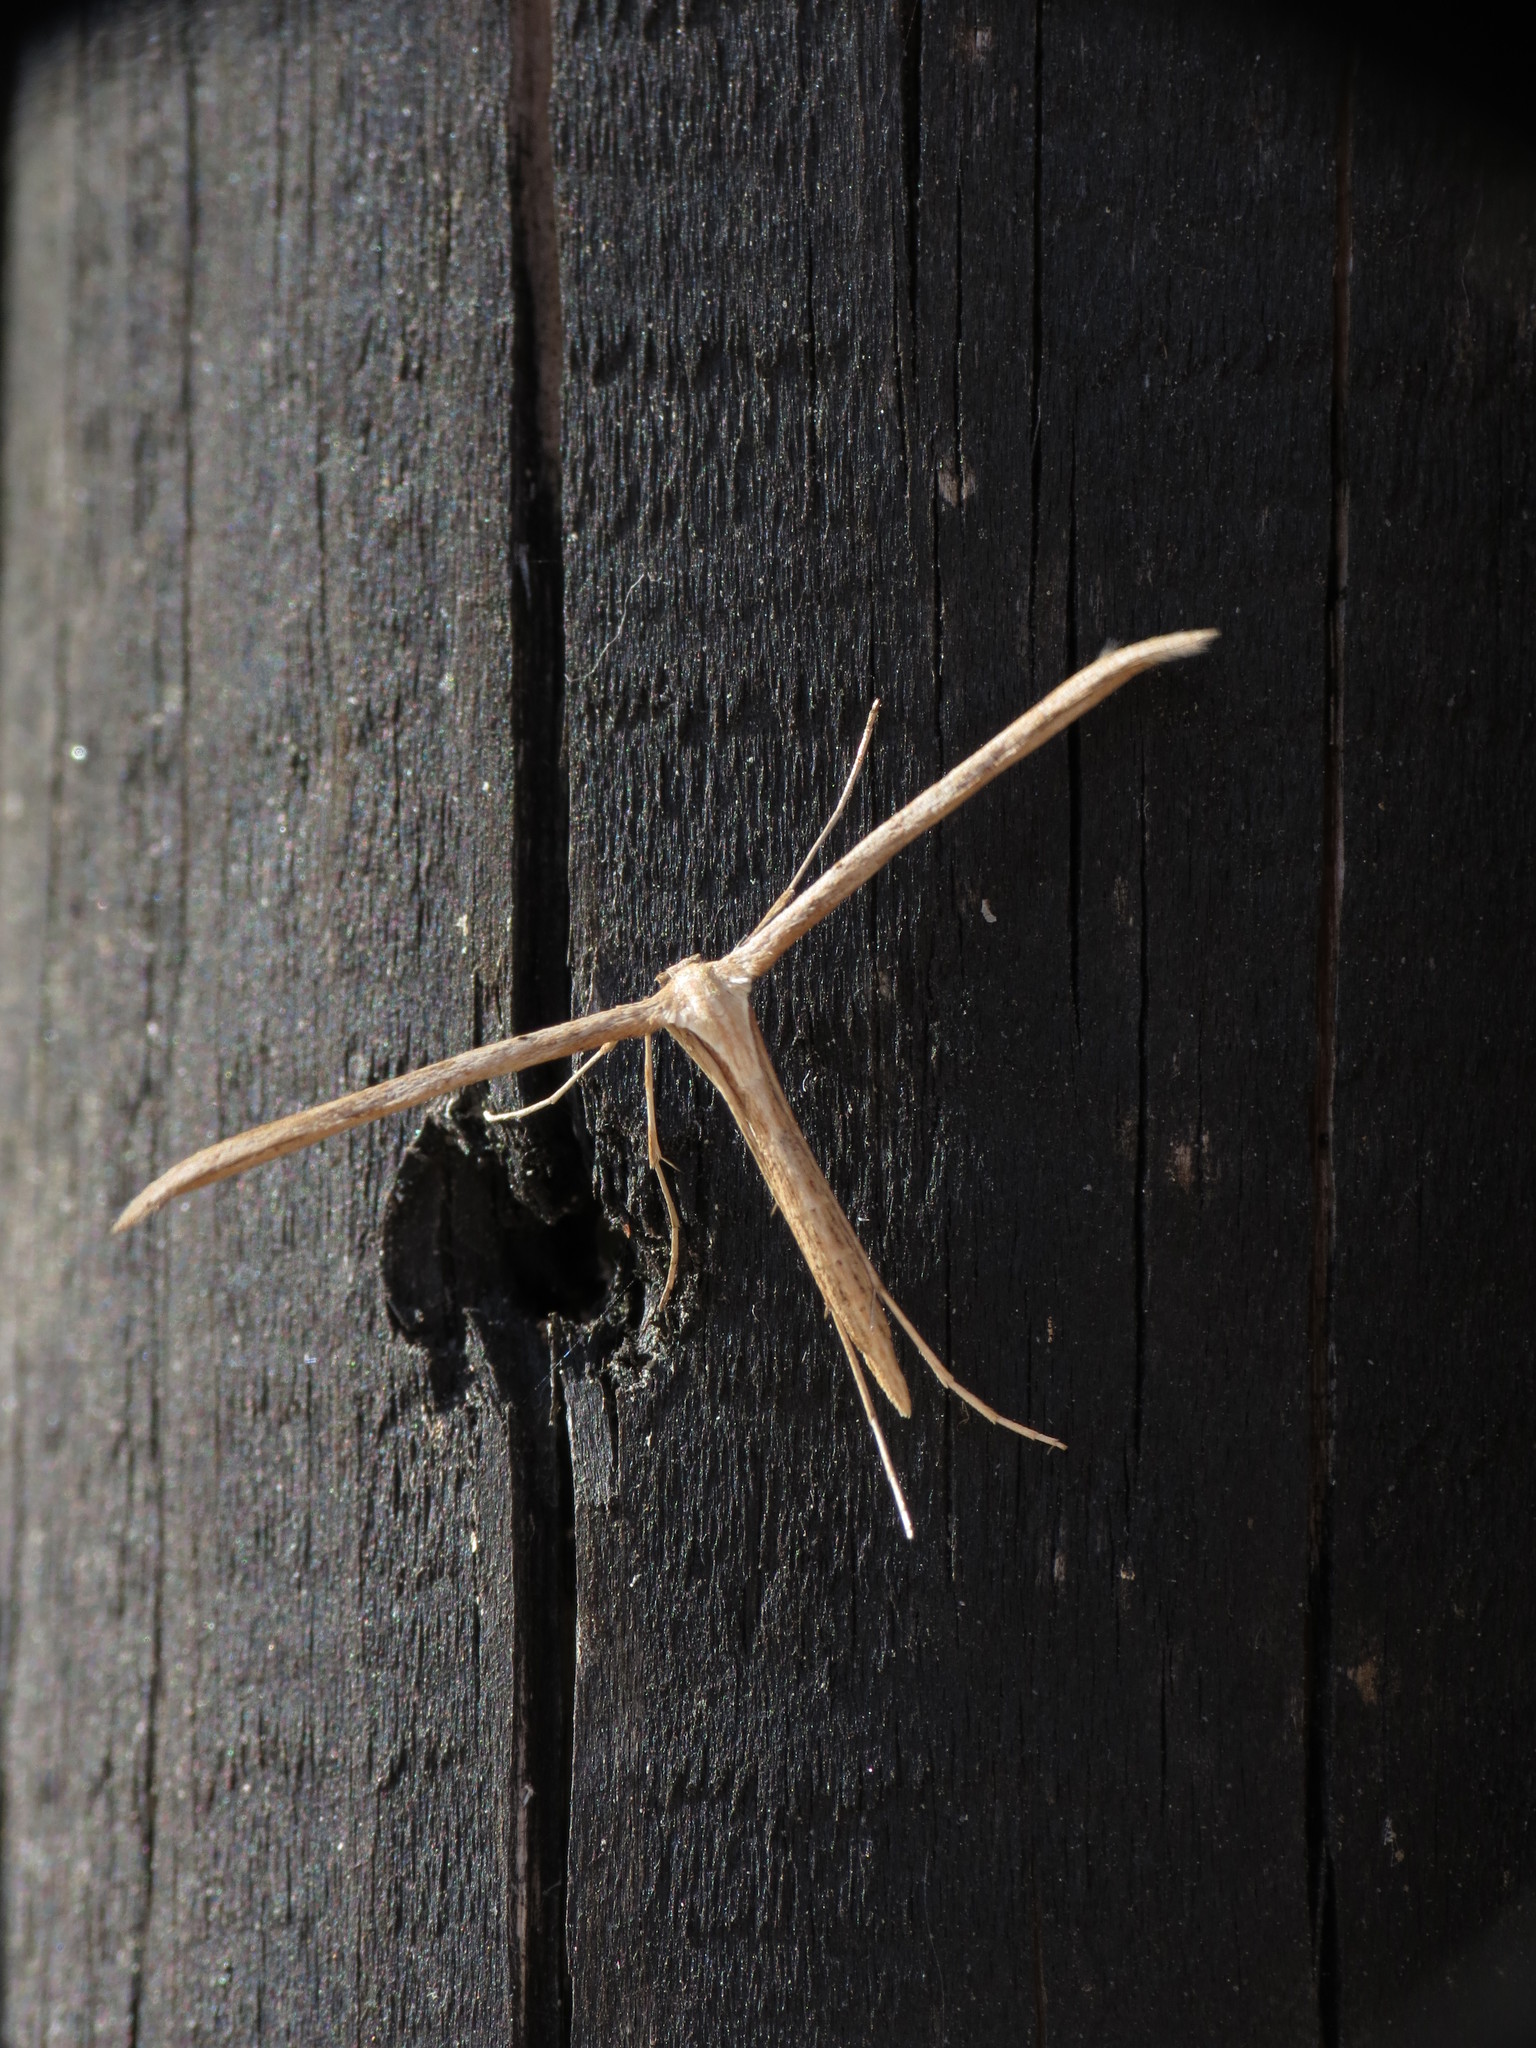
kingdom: Animalia
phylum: Arthropoda
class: Insecta
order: Lepidoptera
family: Pterophoridae
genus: Emmelina
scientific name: Emmelina monodactyla
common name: Common plume
